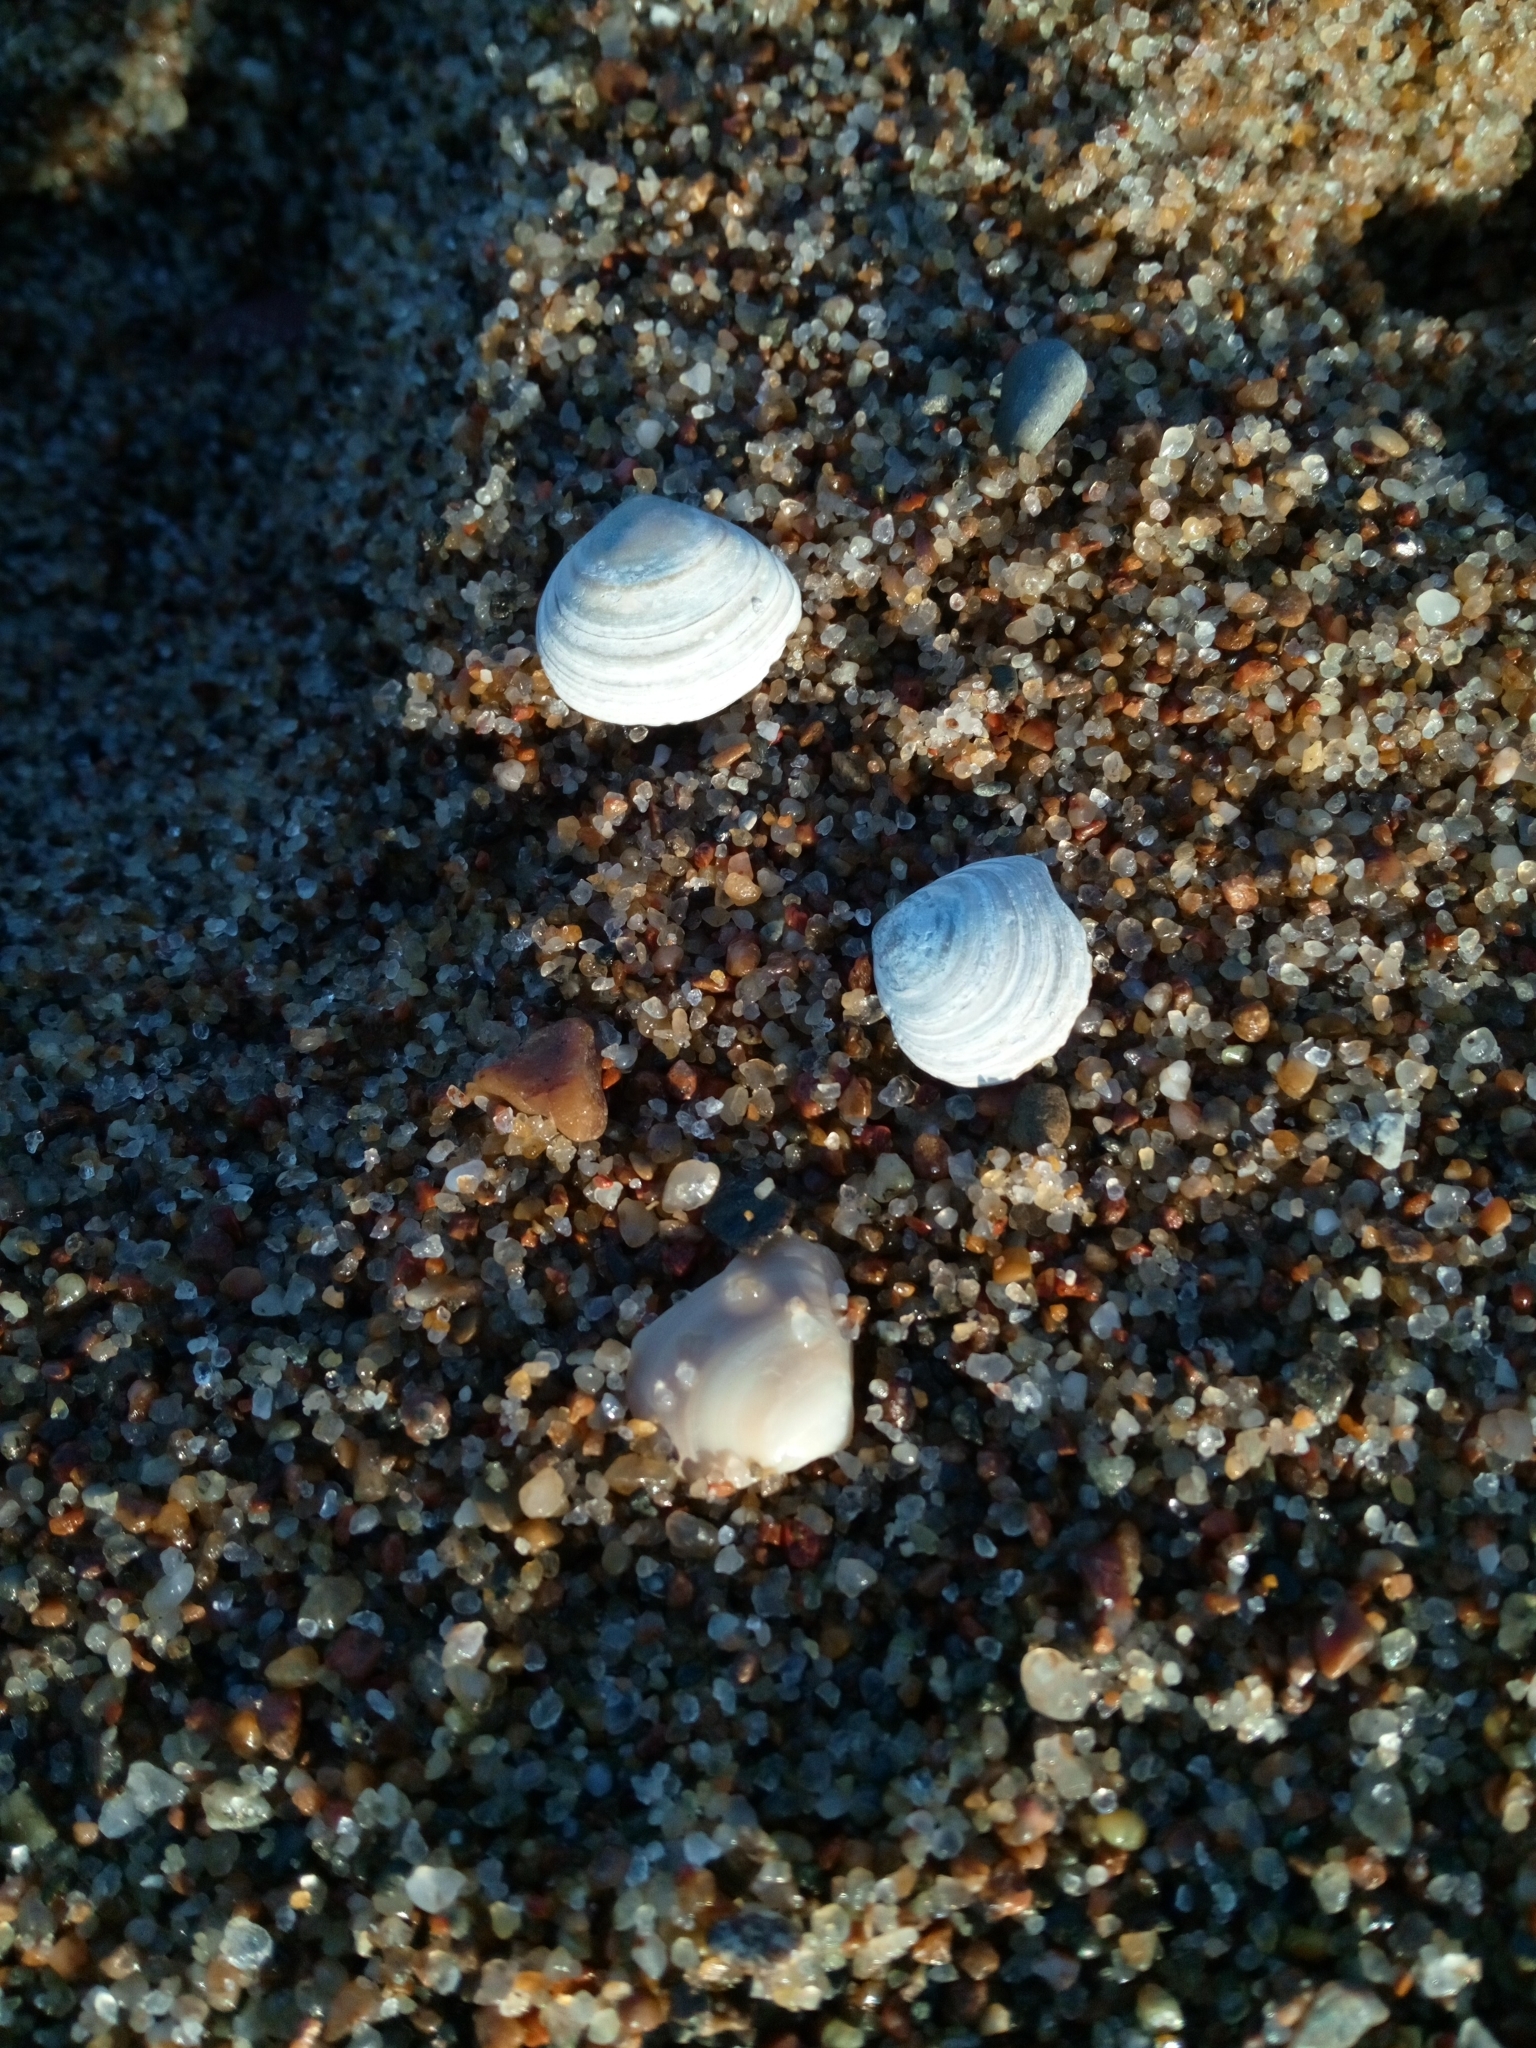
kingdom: Animalia
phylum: Mollusca
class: Bivalvia
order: Cardiida
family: Tellinidae
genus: Macoma
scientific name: Macoma balthica
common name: Baltic tellin
